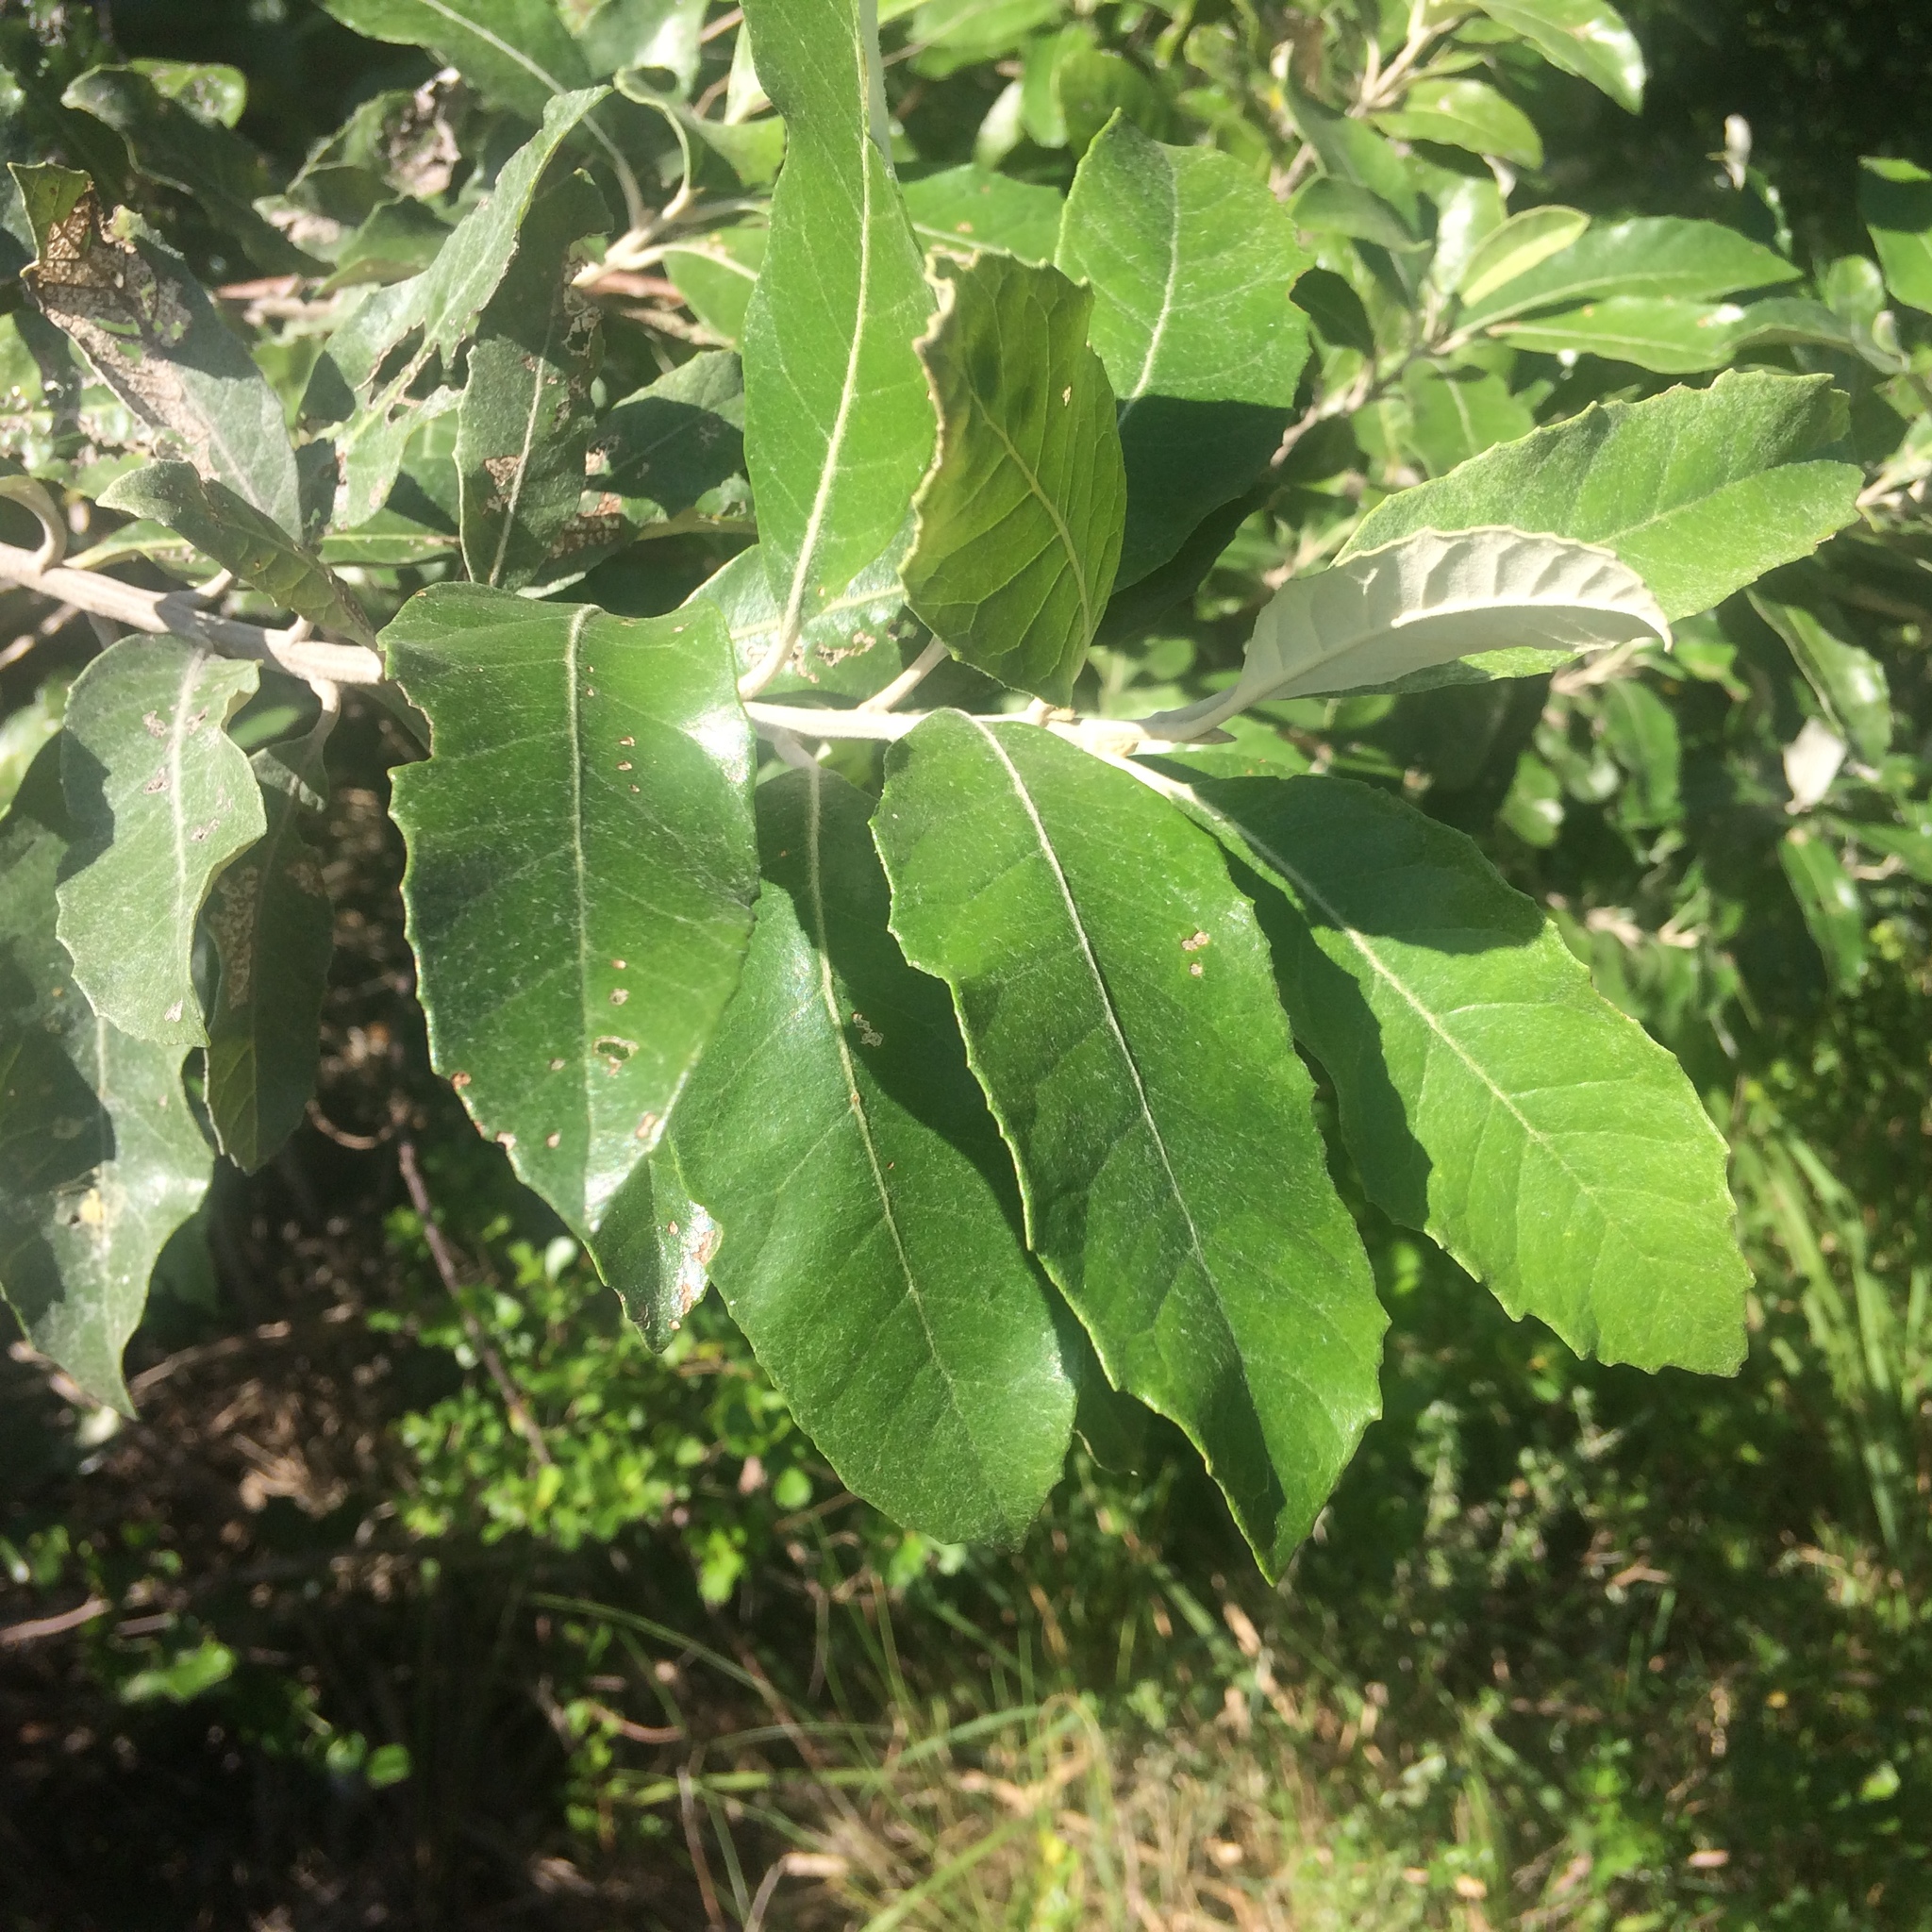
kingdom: Plantae
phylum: Tracheophyta
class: Magnoliopsida
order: Asterales
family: Asteraceae
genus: Brachylaena
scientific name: Brachylaena discolor
